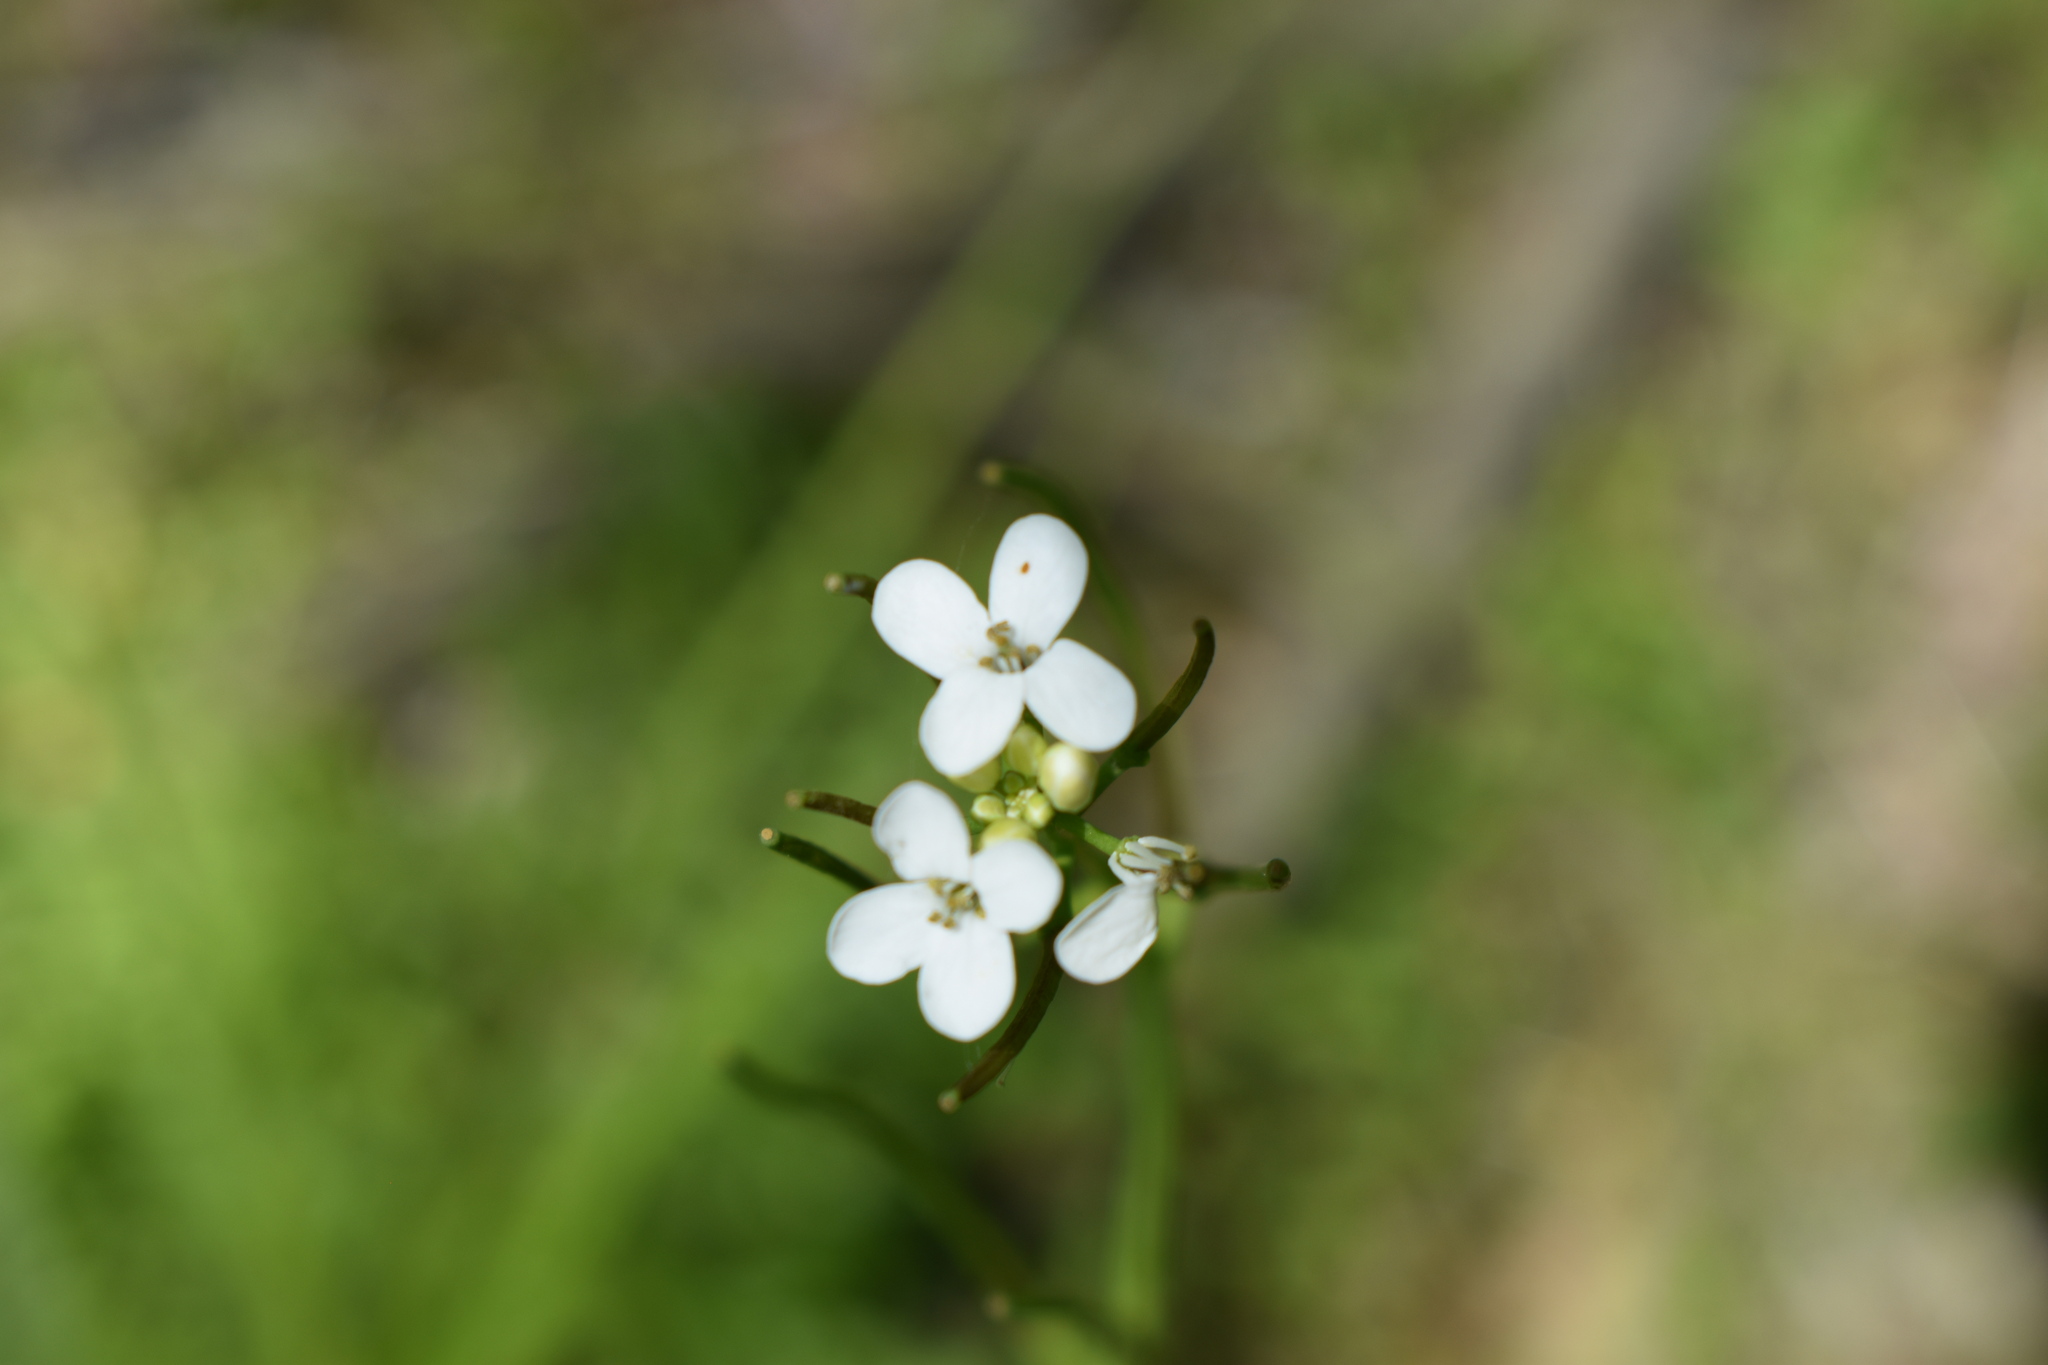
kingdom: Plantae
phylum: Tracheophyta
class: Magnoliopsida
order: Brassicales
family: Brassicaceae
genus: Alliaria
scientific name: Alliaria petiolata
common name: Garlic mustard
